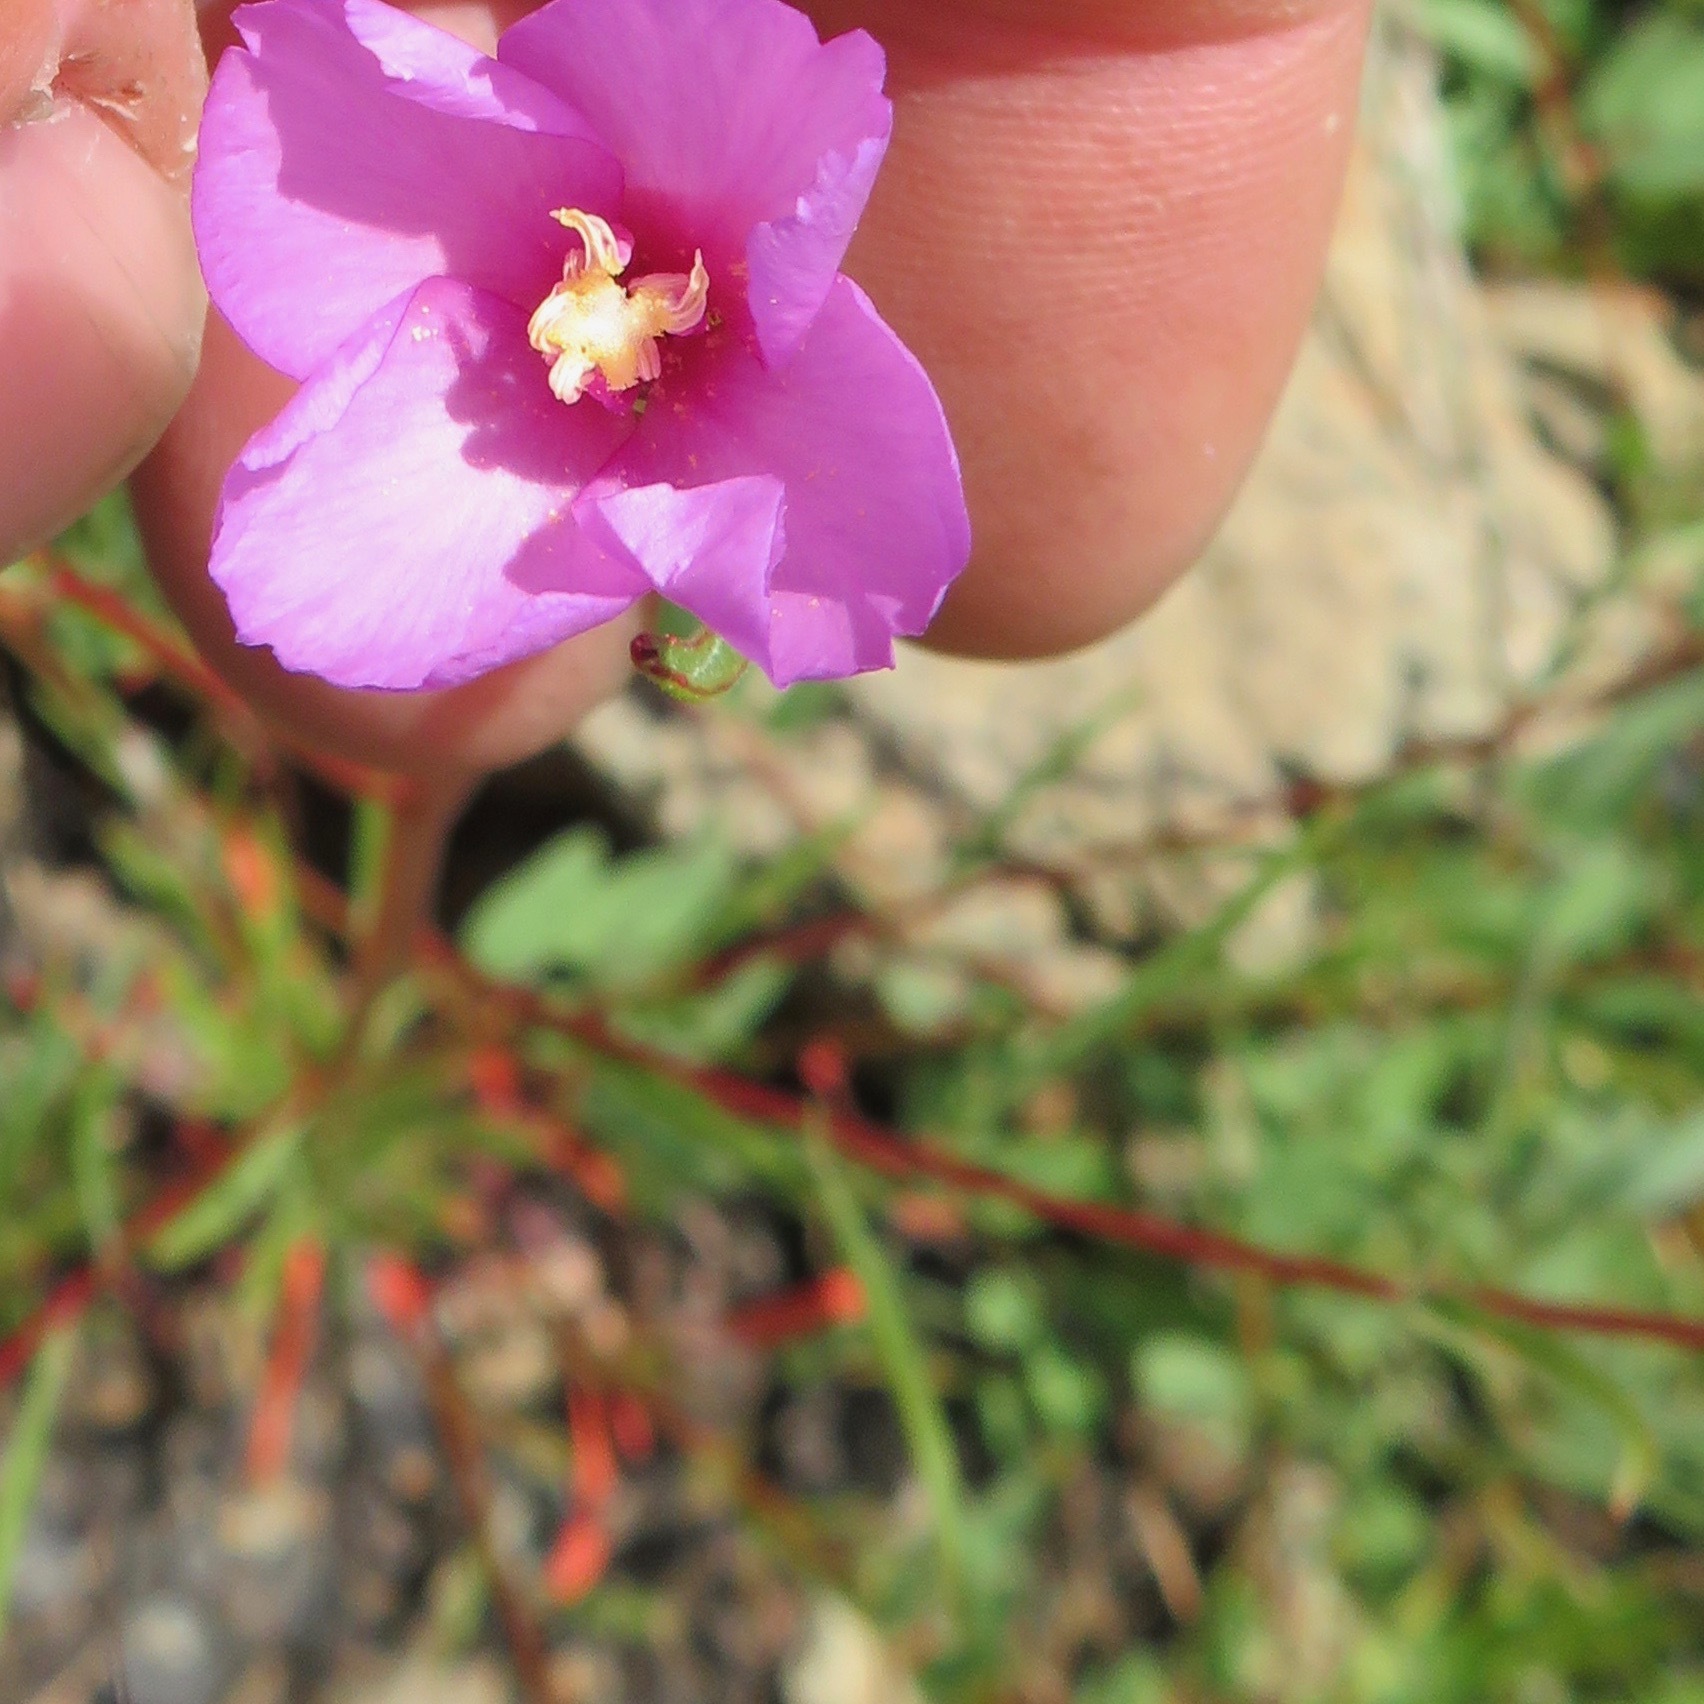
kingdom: Plantae
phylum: Tracheophyta
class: Magnoliopsida
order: Myrtales
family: Onagraceae
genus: Clarkia
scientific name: Clarkia gracilis
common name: Graceful clarkia
